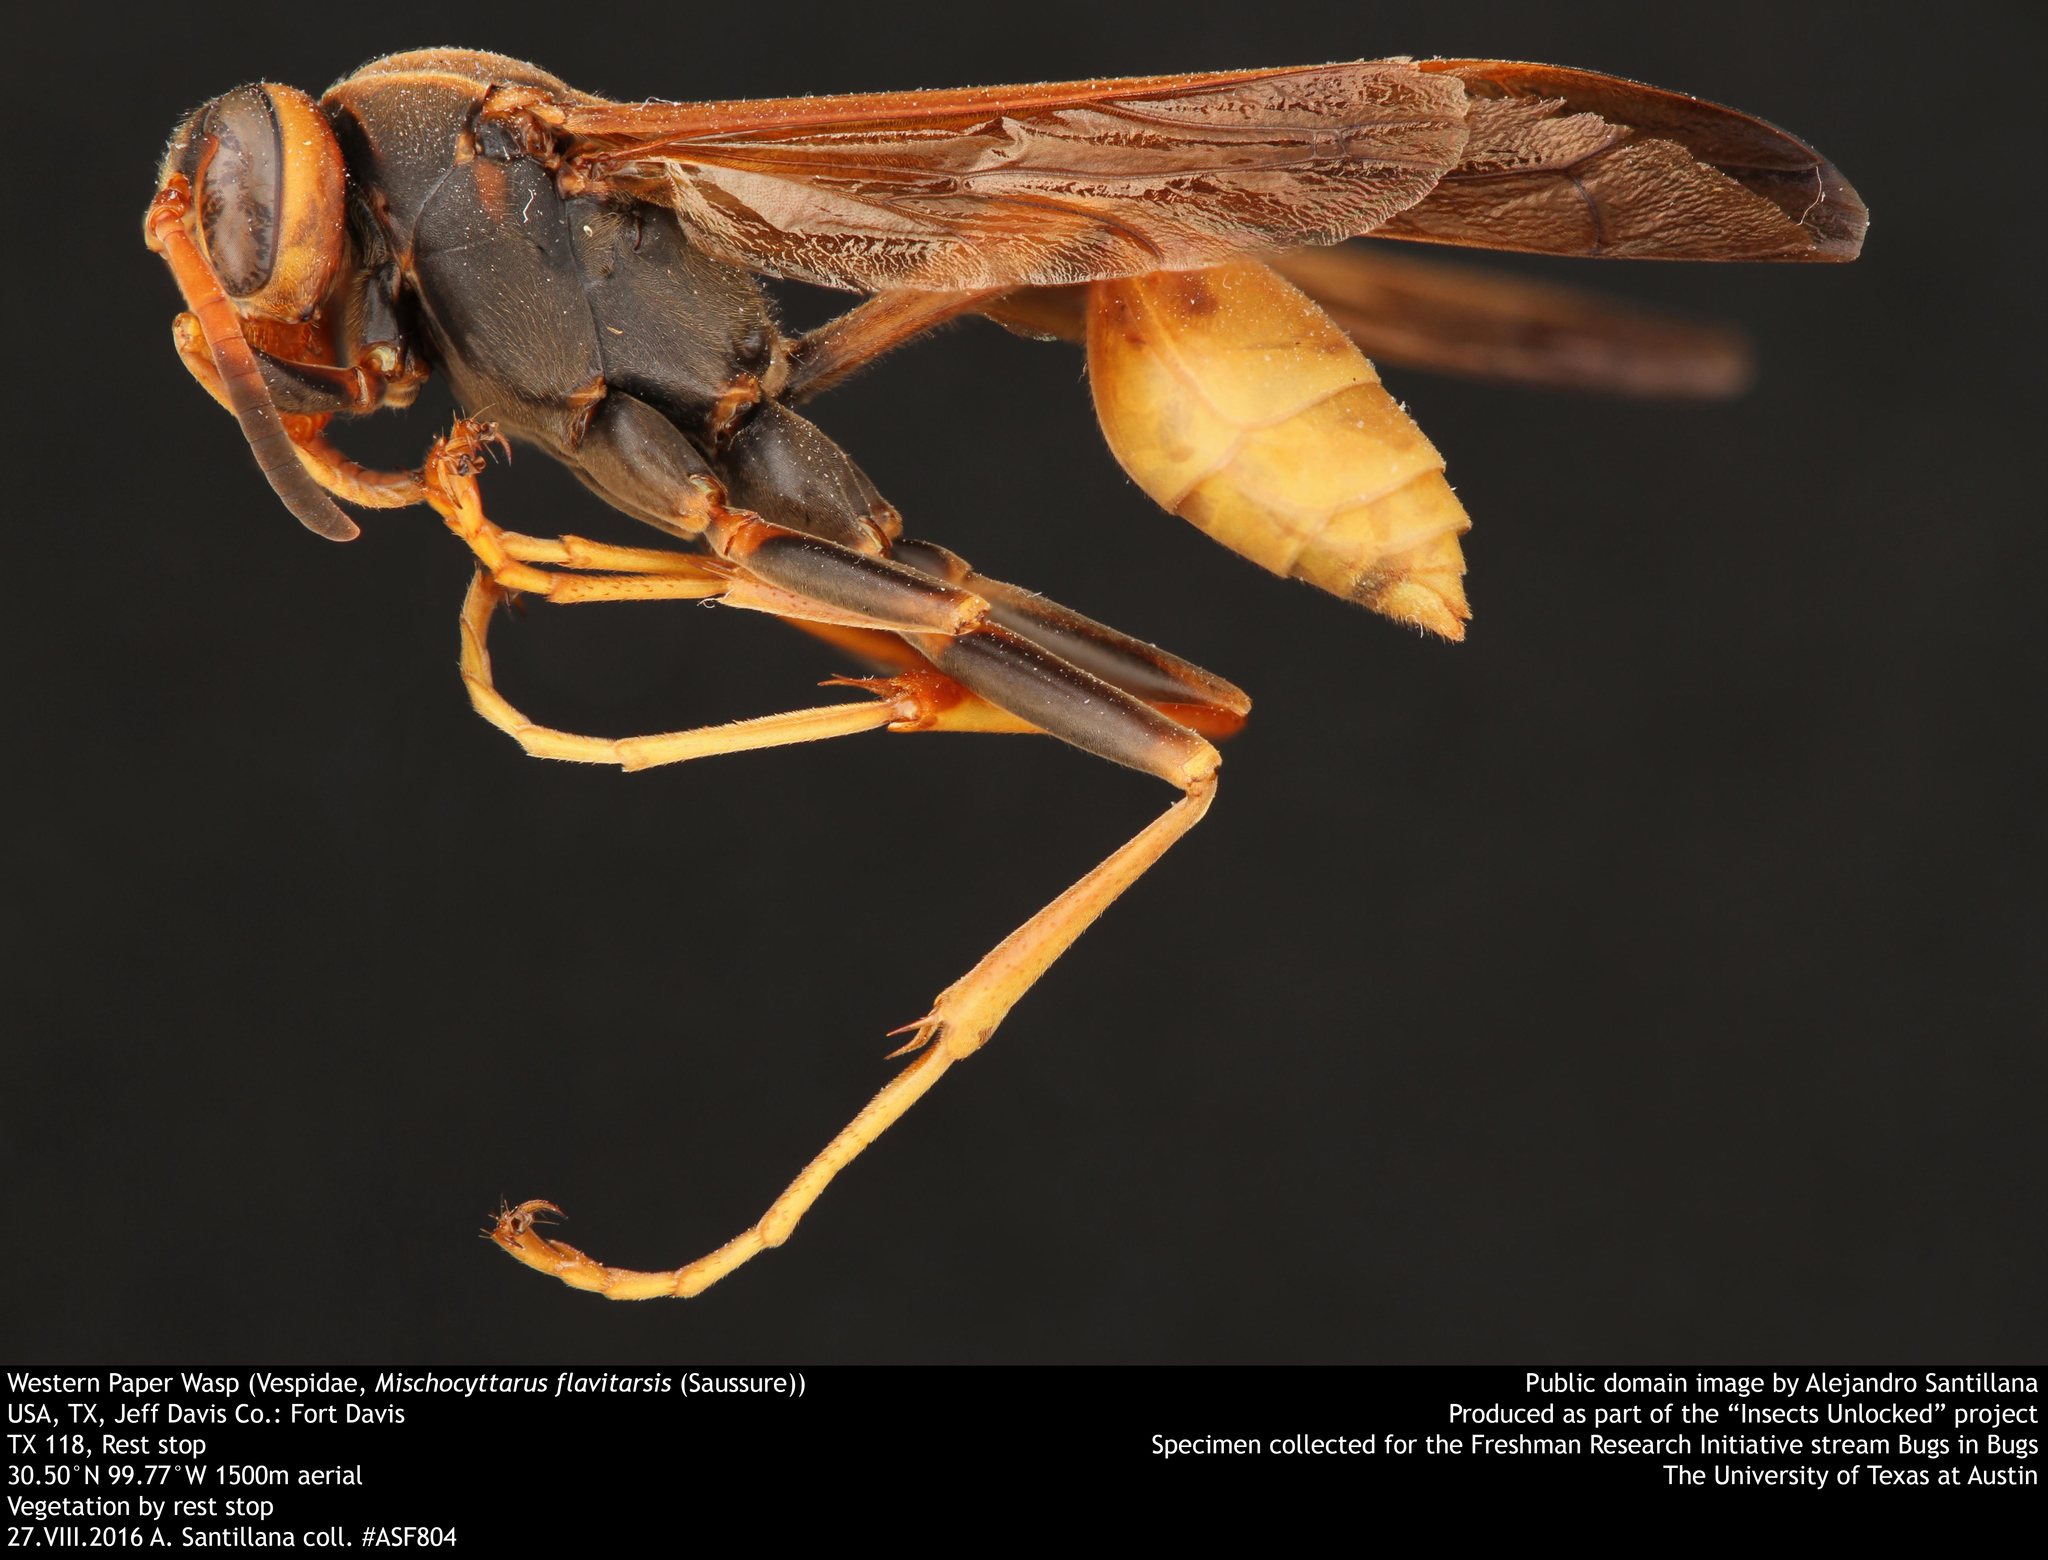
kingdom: Animalia
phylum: Arthropoda
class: Insecta
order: Hymenoptera
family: Vespidae
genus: Mischocyttarus
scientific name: Mischocyttarus flavitarsis
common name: Wasp
